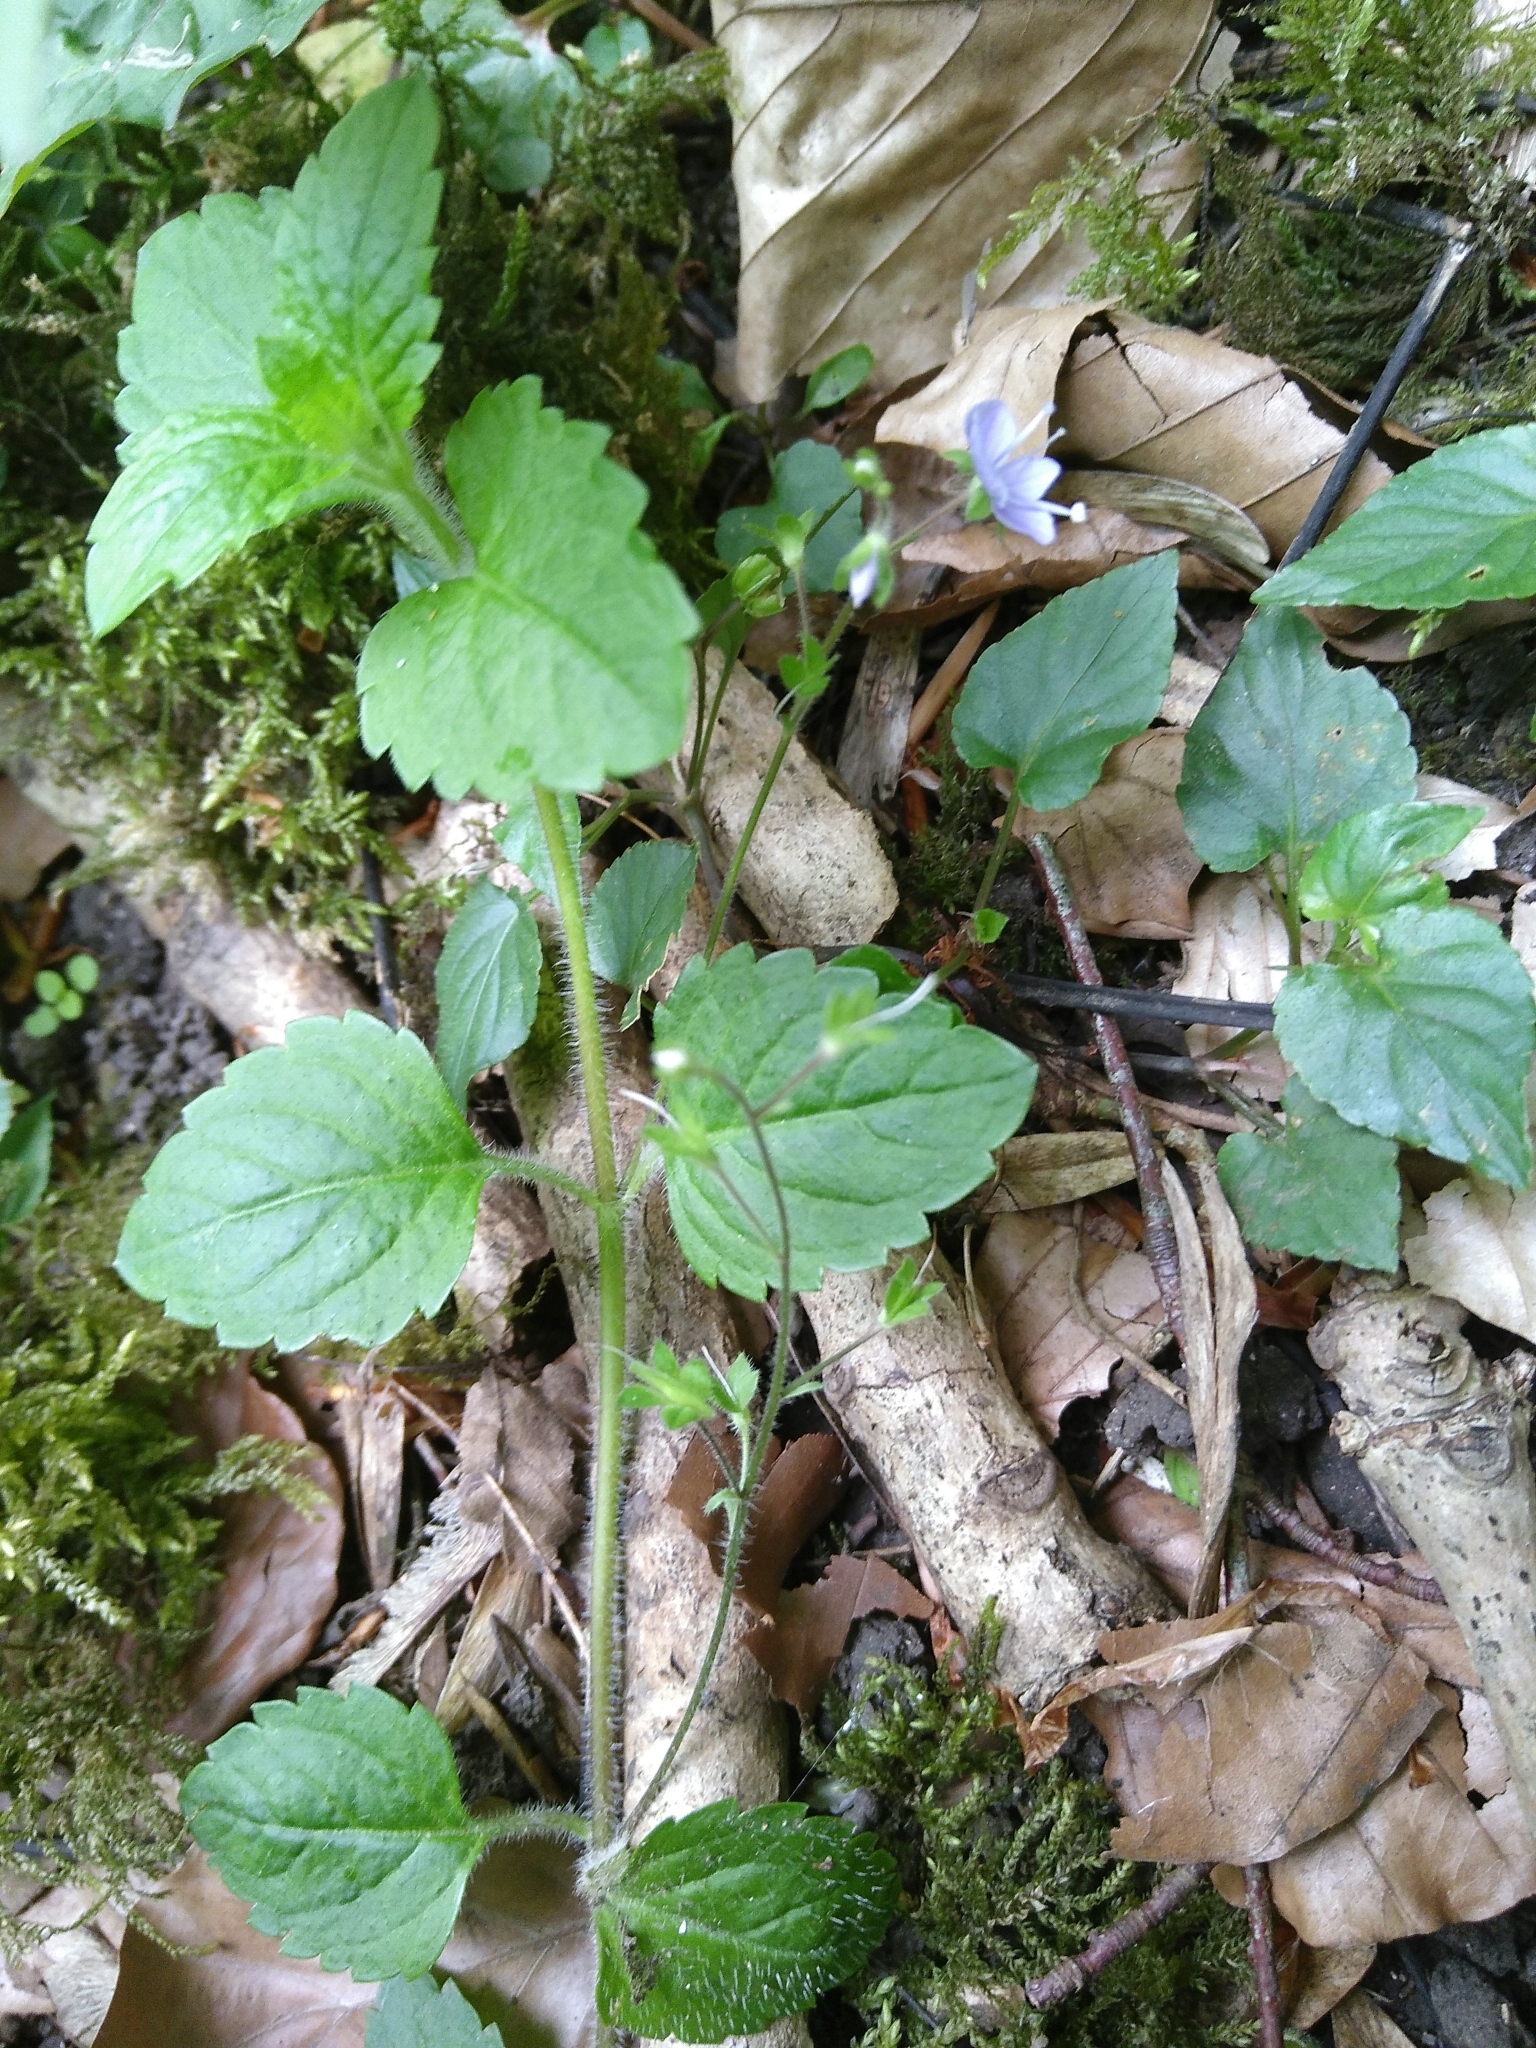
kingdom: Plantae
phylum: Tracheophyta
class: Magnoliopsida
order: Lamiales
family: Plantaginaceae
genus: Veronica
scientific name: Veronica montana
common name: Wood speedwell
